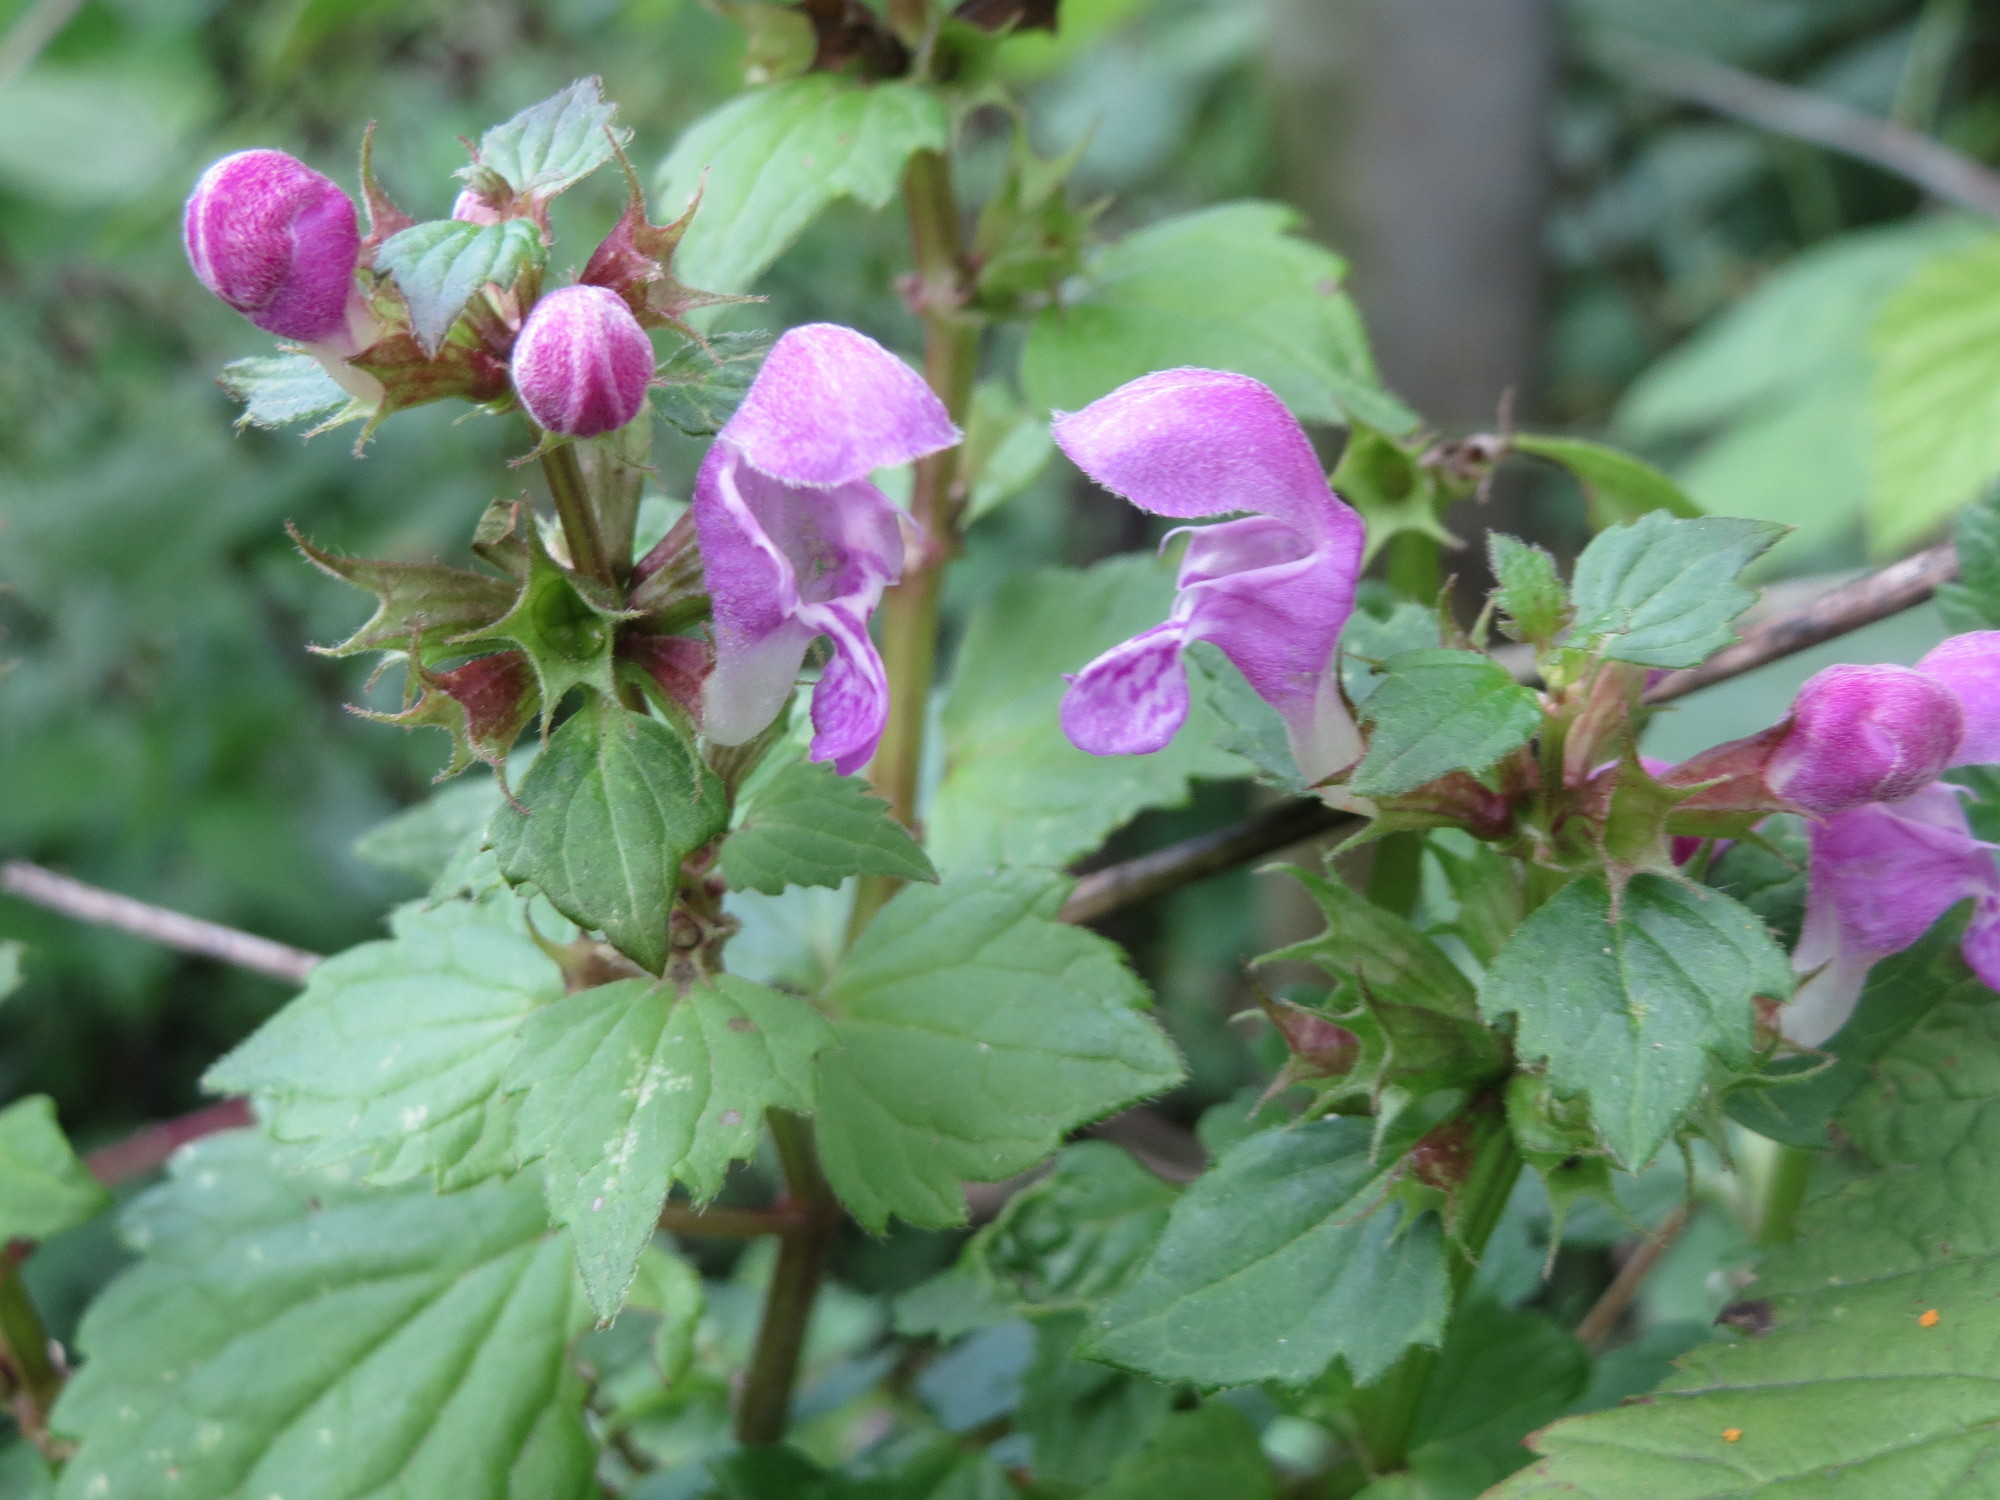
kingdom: Plantae
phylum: Tracheophyta
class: Magnoliopsida
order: Lamiales
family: Lamiaceae
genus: Lamium
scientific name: Lamium maculatum
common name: Spotted dead-nettle
